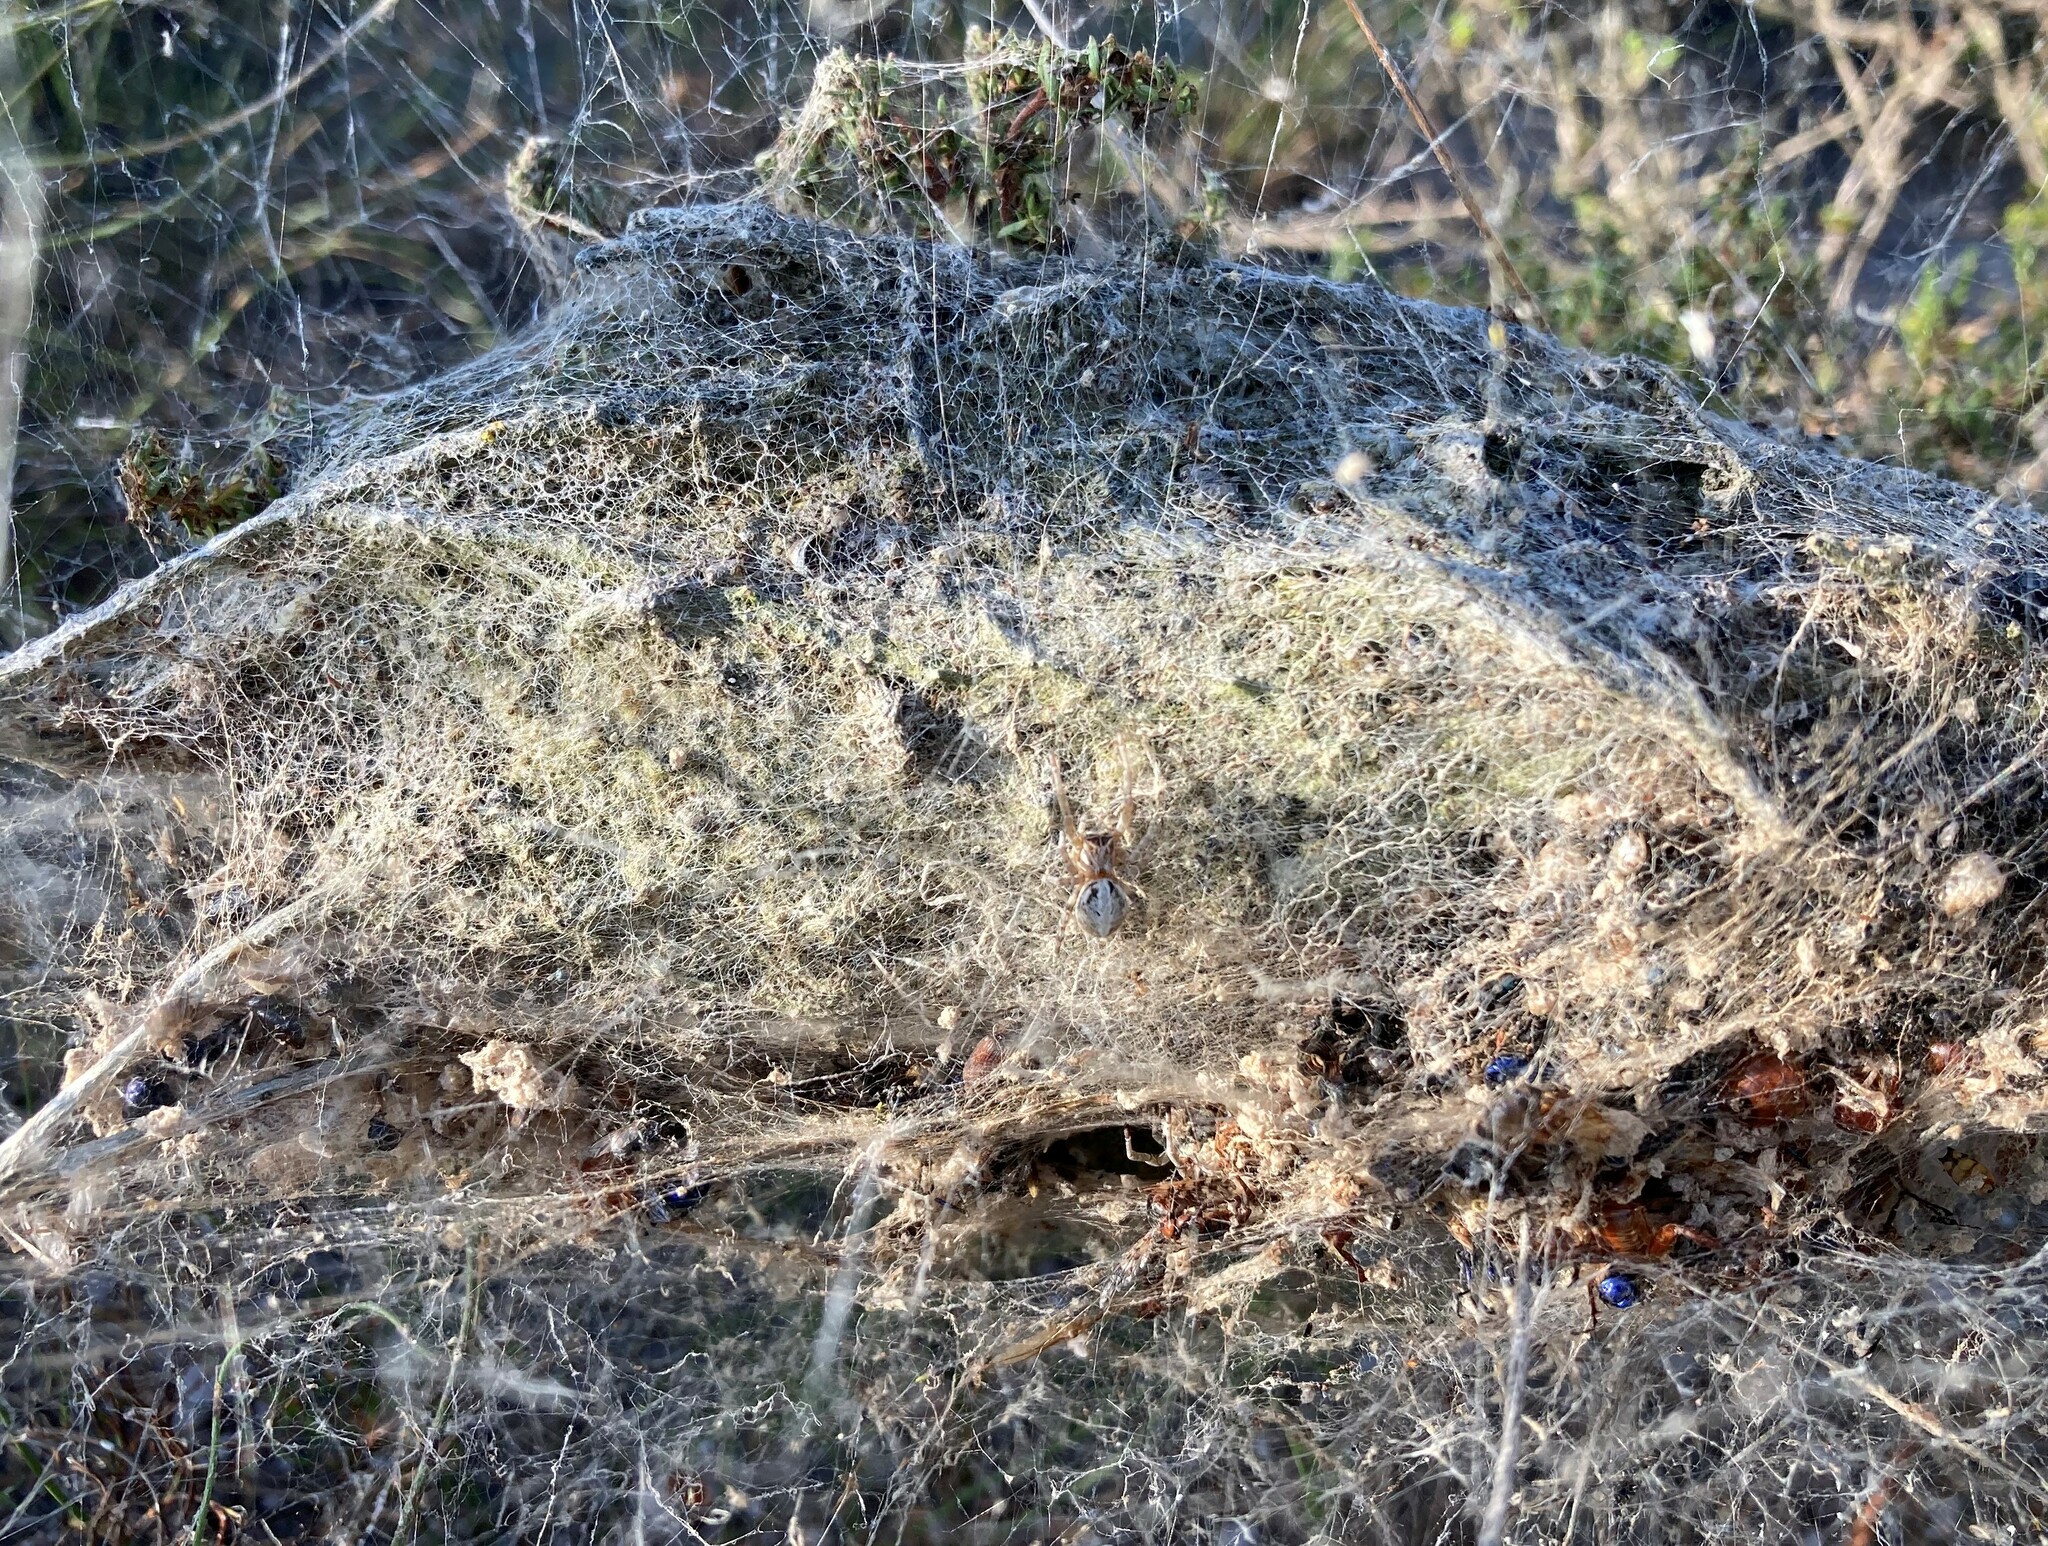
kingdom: Animalia
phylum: Arthropoda
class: Arachnida
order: Araneae
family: Eresidae
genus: Stegodyphus
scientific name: Stegodyphus dumicola
